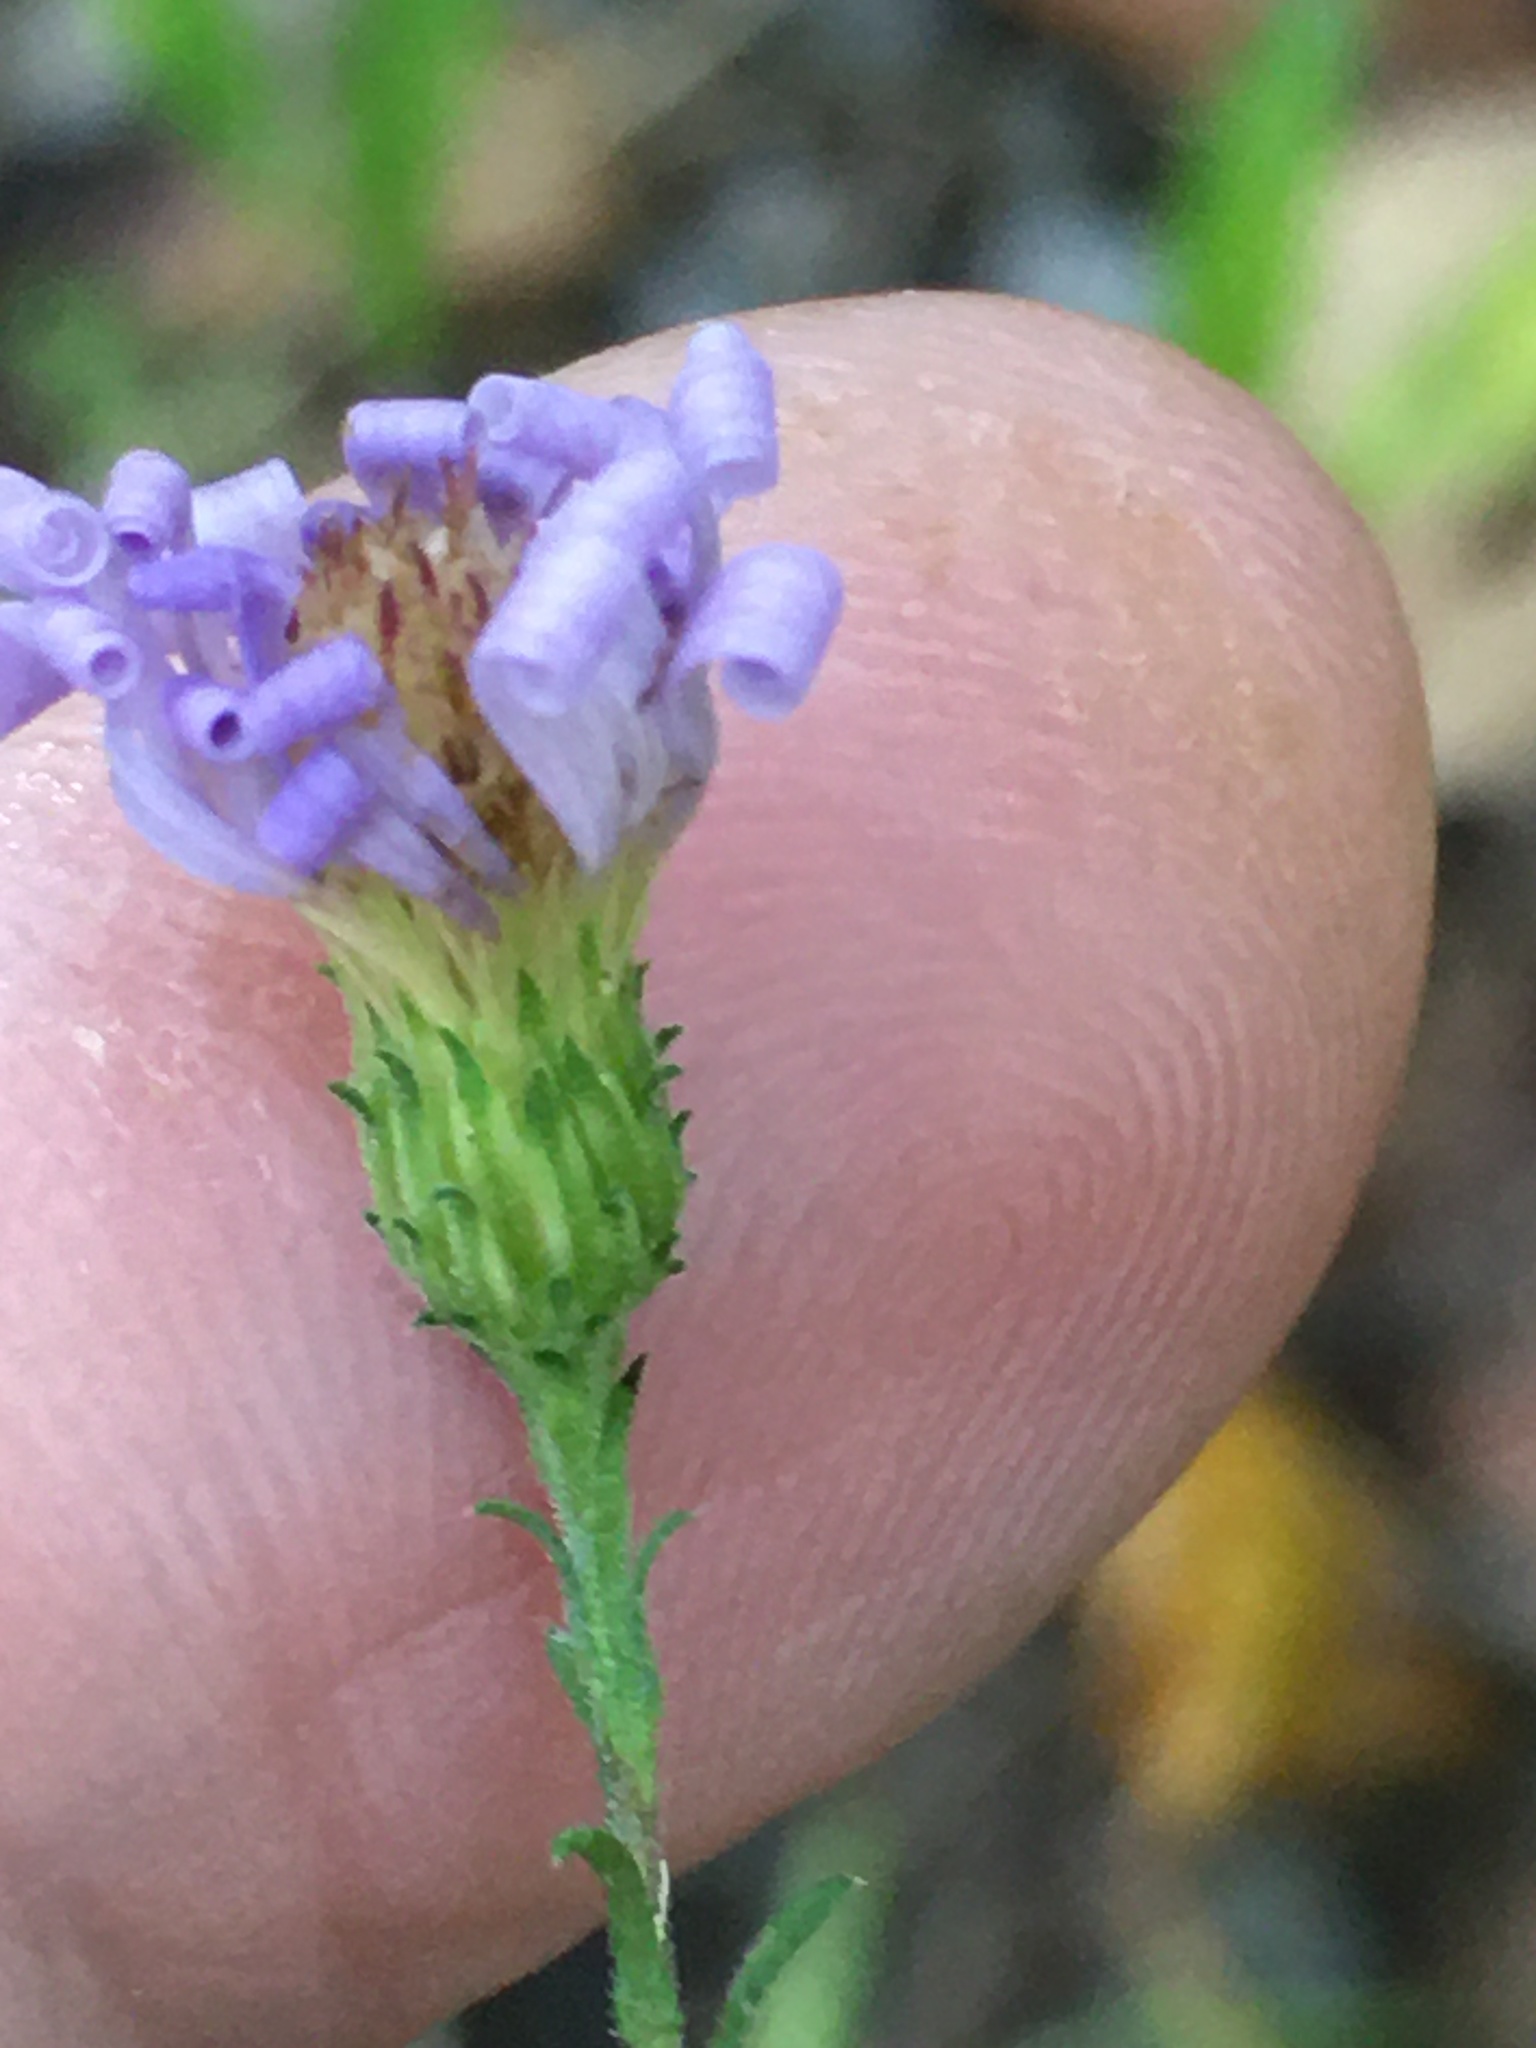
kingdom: Plantae
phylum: Tracheophyta
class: Magnoliopsida
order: Asterales
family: Asteraceae
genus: Symphyotrichum
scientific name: Symphyotrichum patens
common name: Late purple aster
